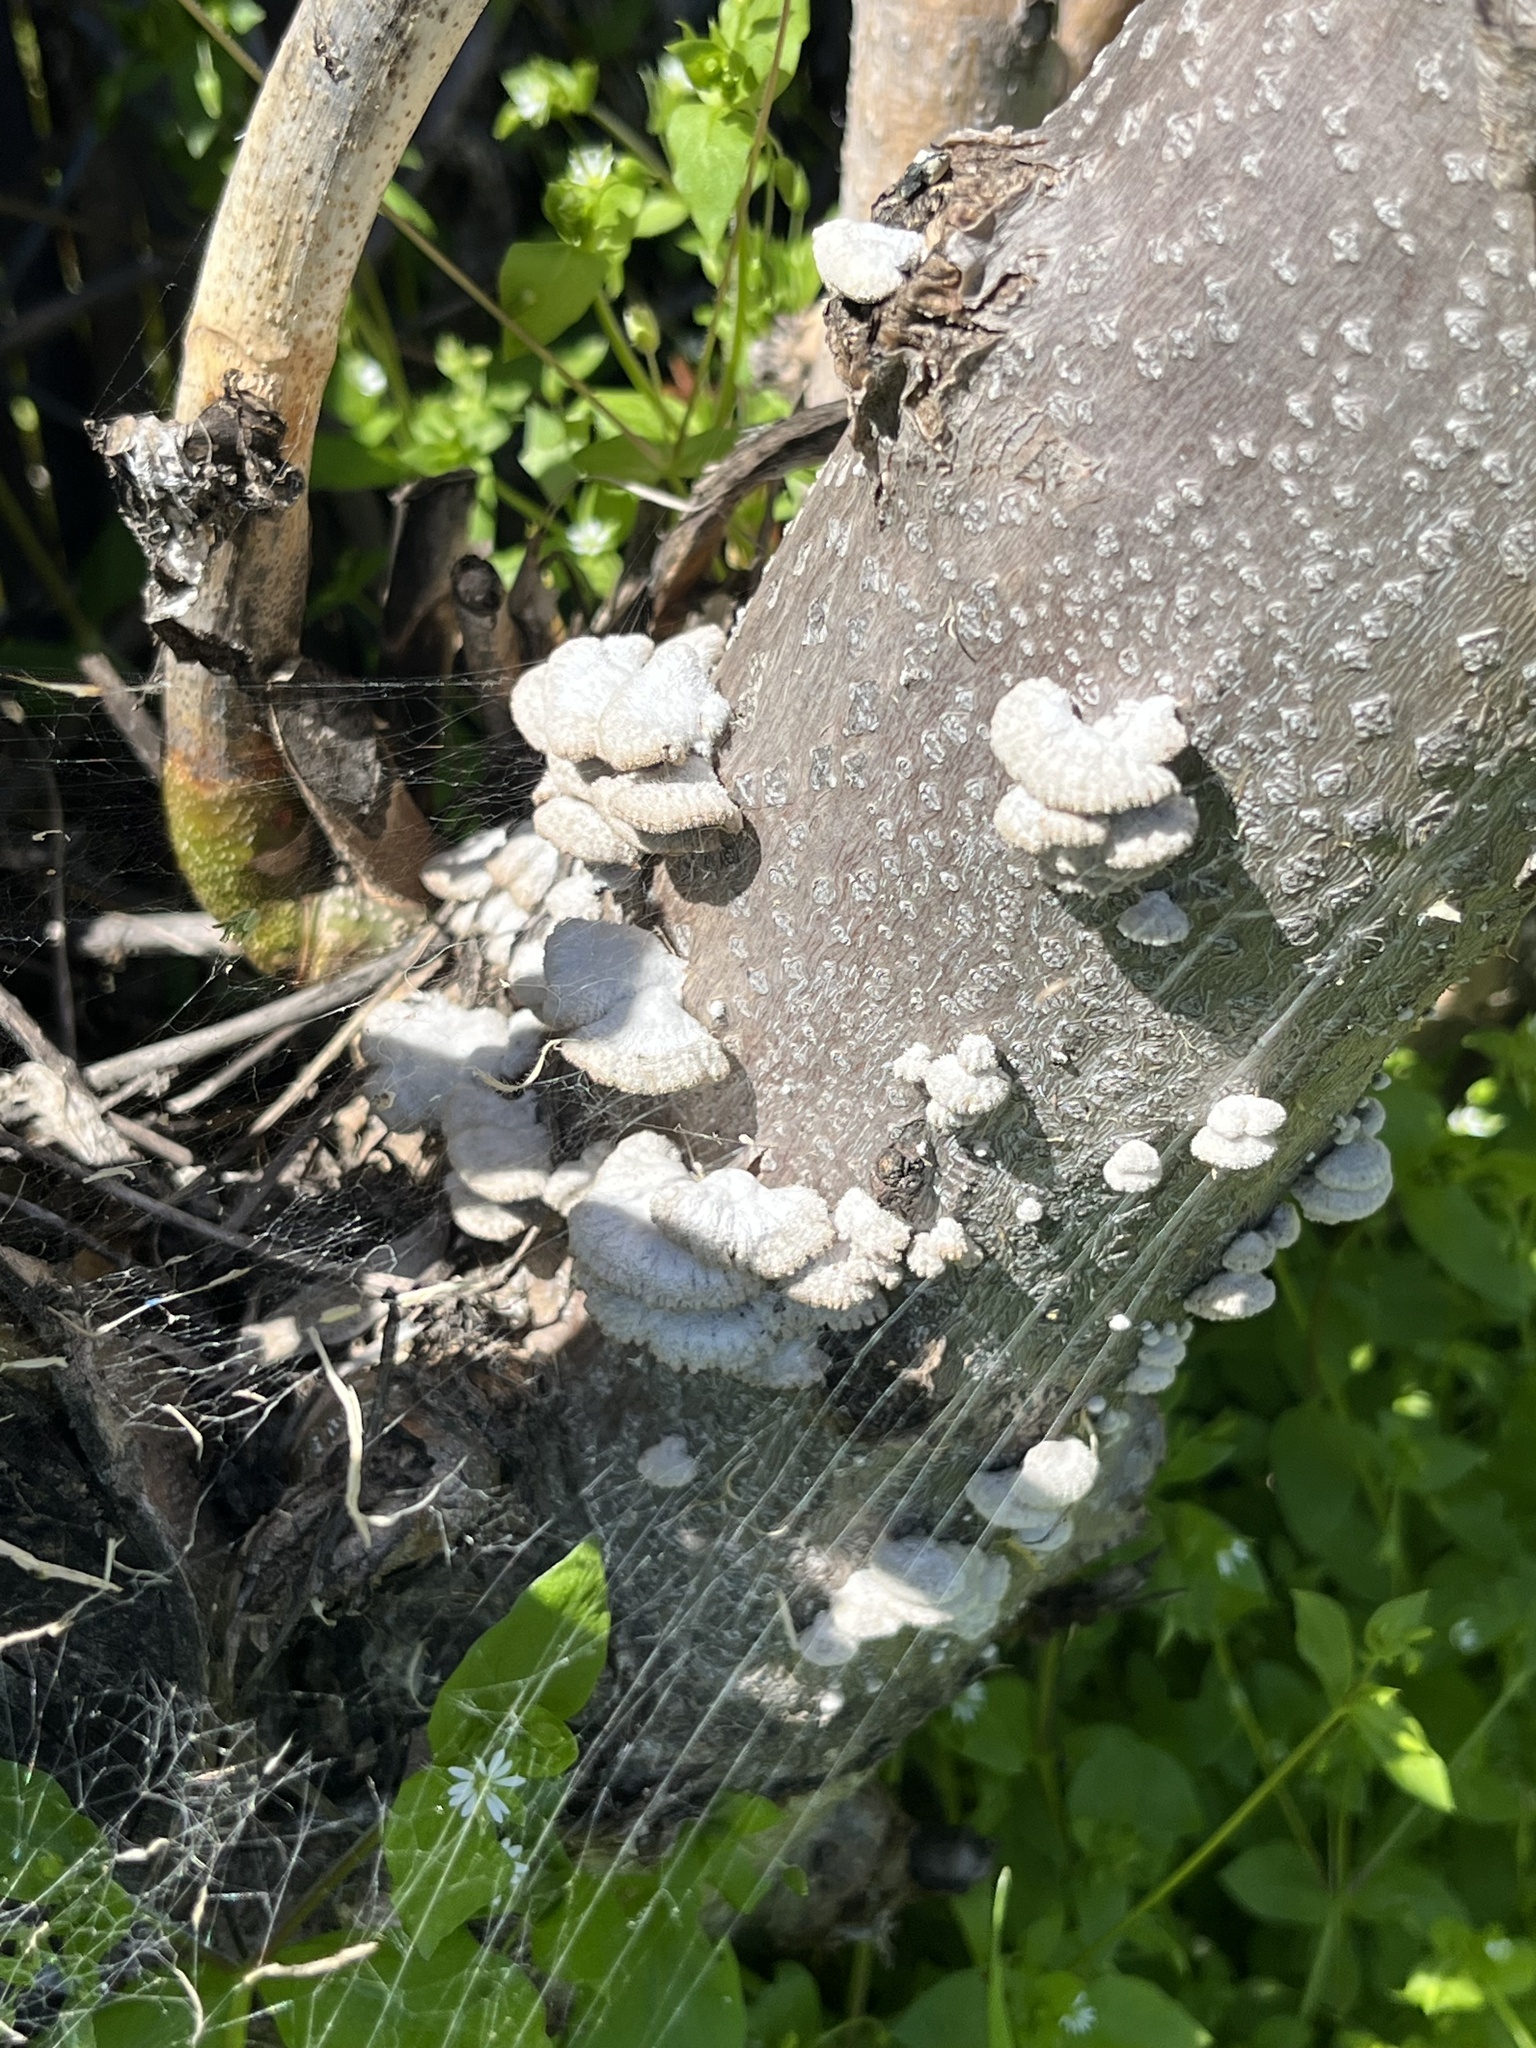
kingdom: Fungi
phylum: Basidiomycota
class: Agaricomycetes
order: Agaricales
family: Schizophyllaceae
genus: Schizophyllum
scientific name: Schizophyllum commune
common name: Common porecrust
